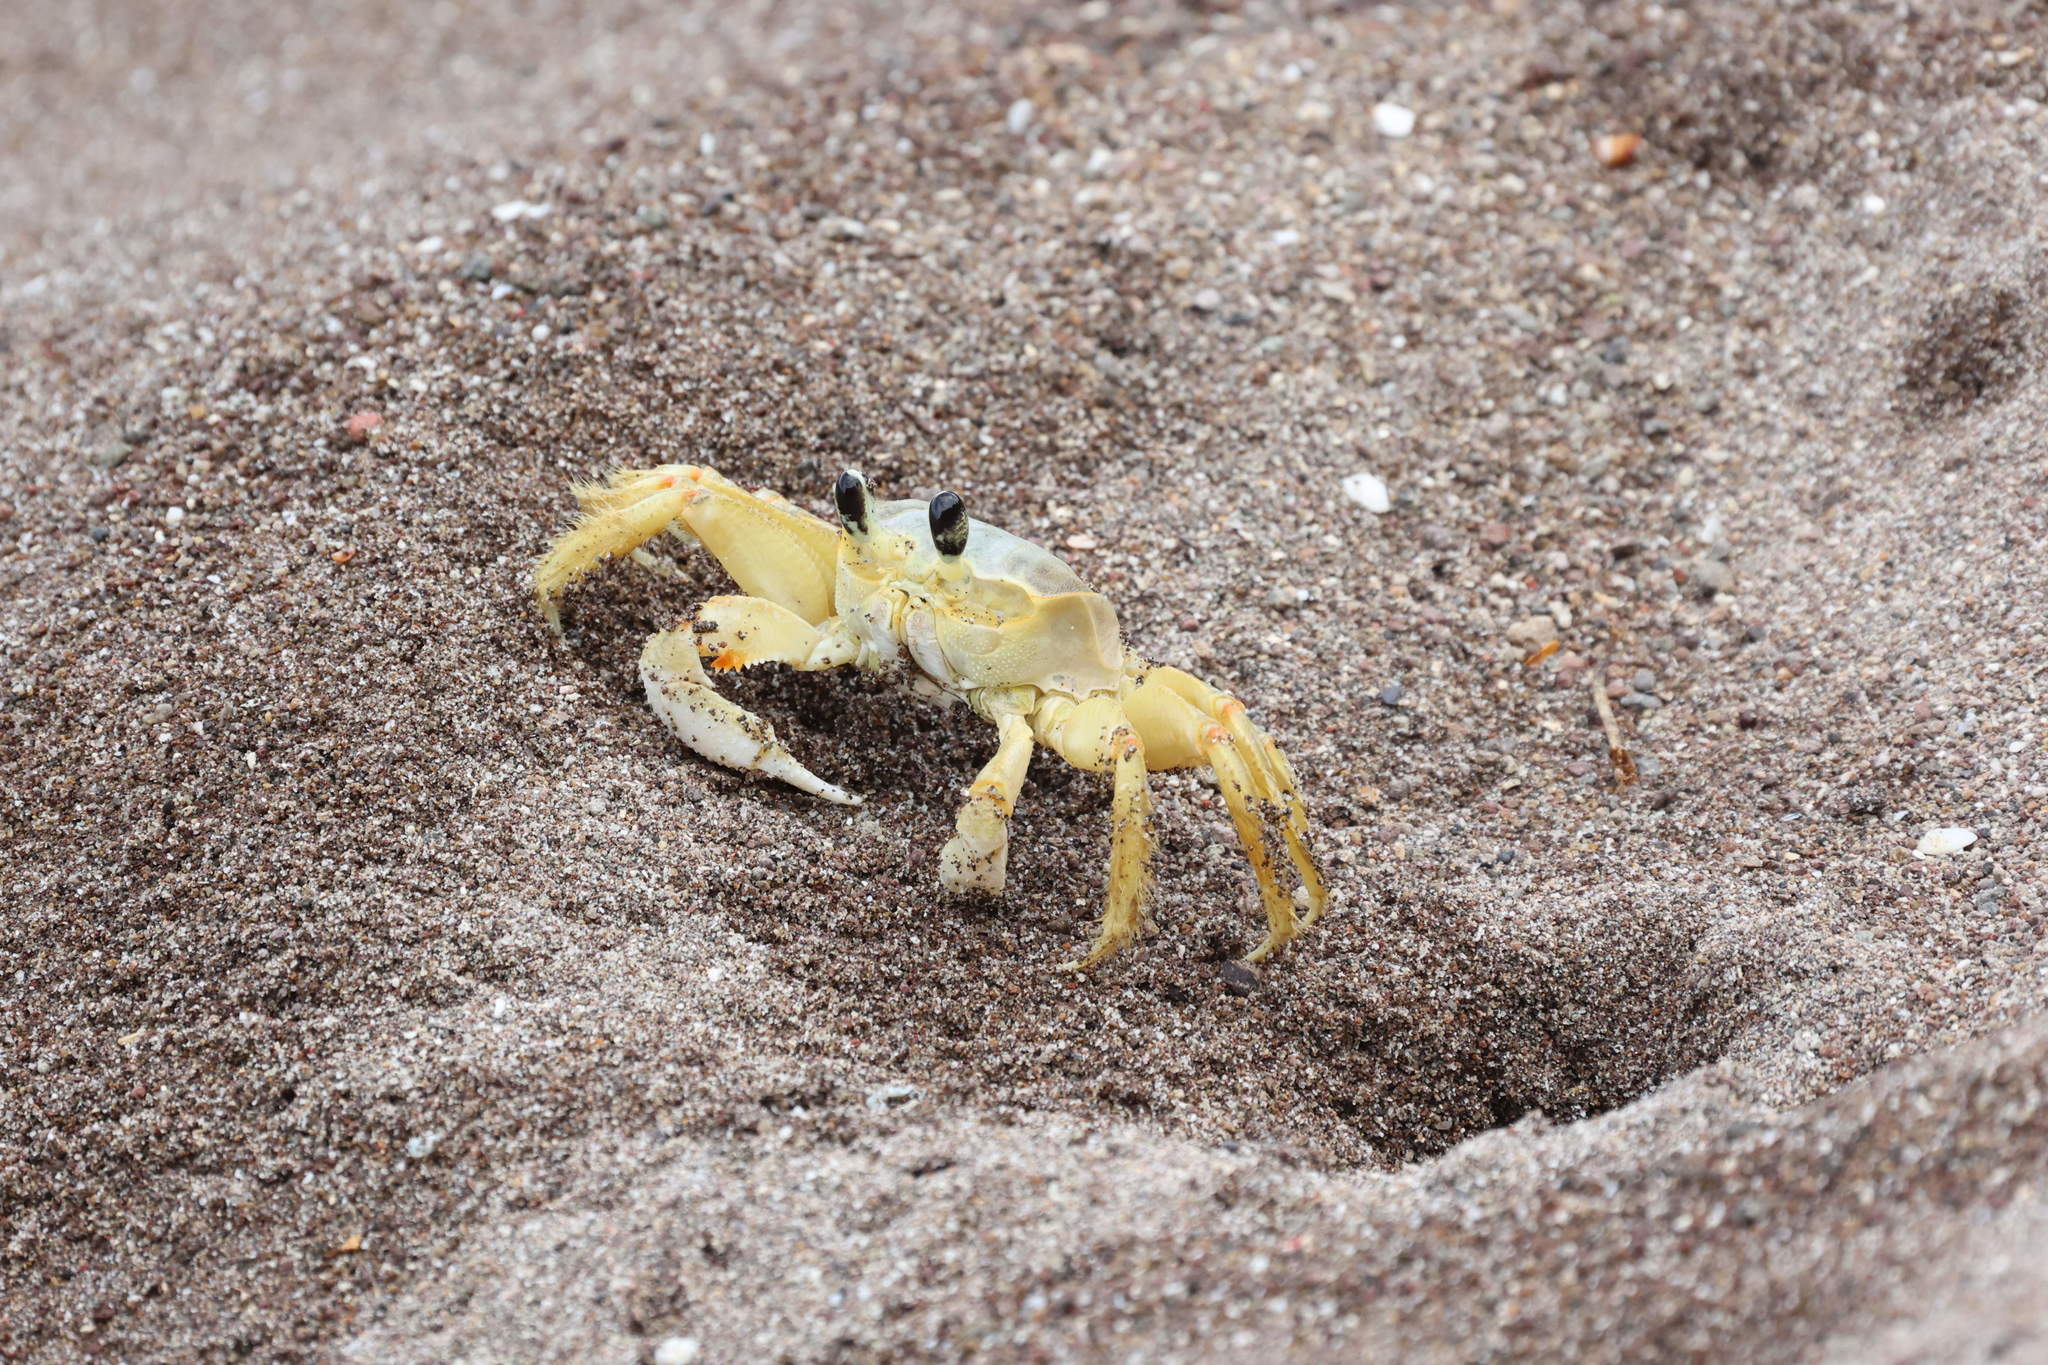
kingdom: Animalia
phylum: Arthropoda
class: Malacostraca
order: Decapoda
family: Ocypodidae
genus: Ocypode
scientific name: Ocypode quadrata
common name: Ghost crab
